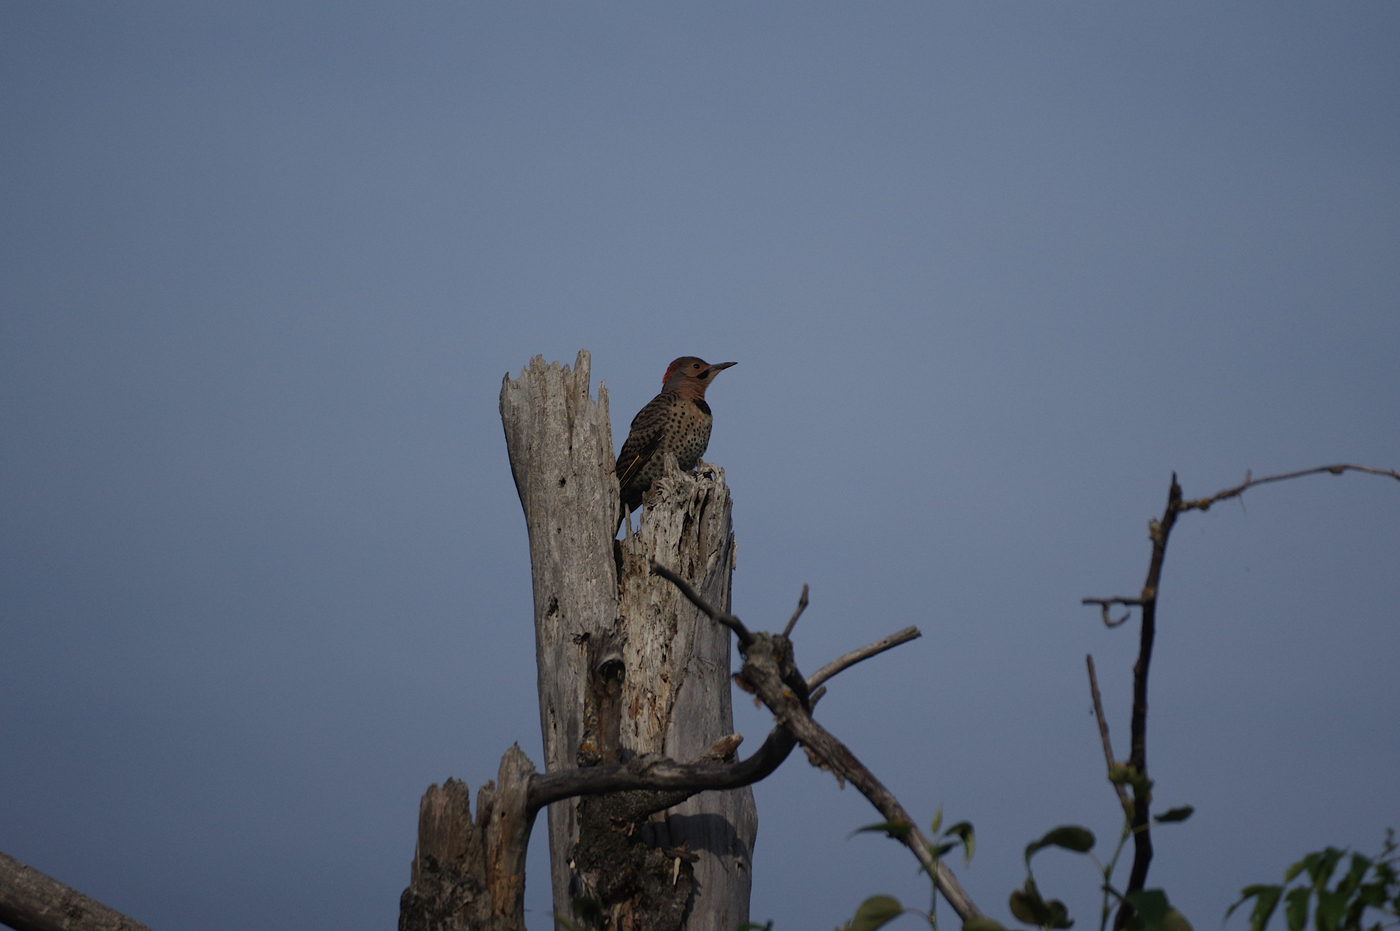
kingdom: Animalia
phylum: Chordata
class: Aves
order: Piciformes
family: Picidae
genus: Colaptes
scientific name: Colaptes auratus
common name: Northern flicker
